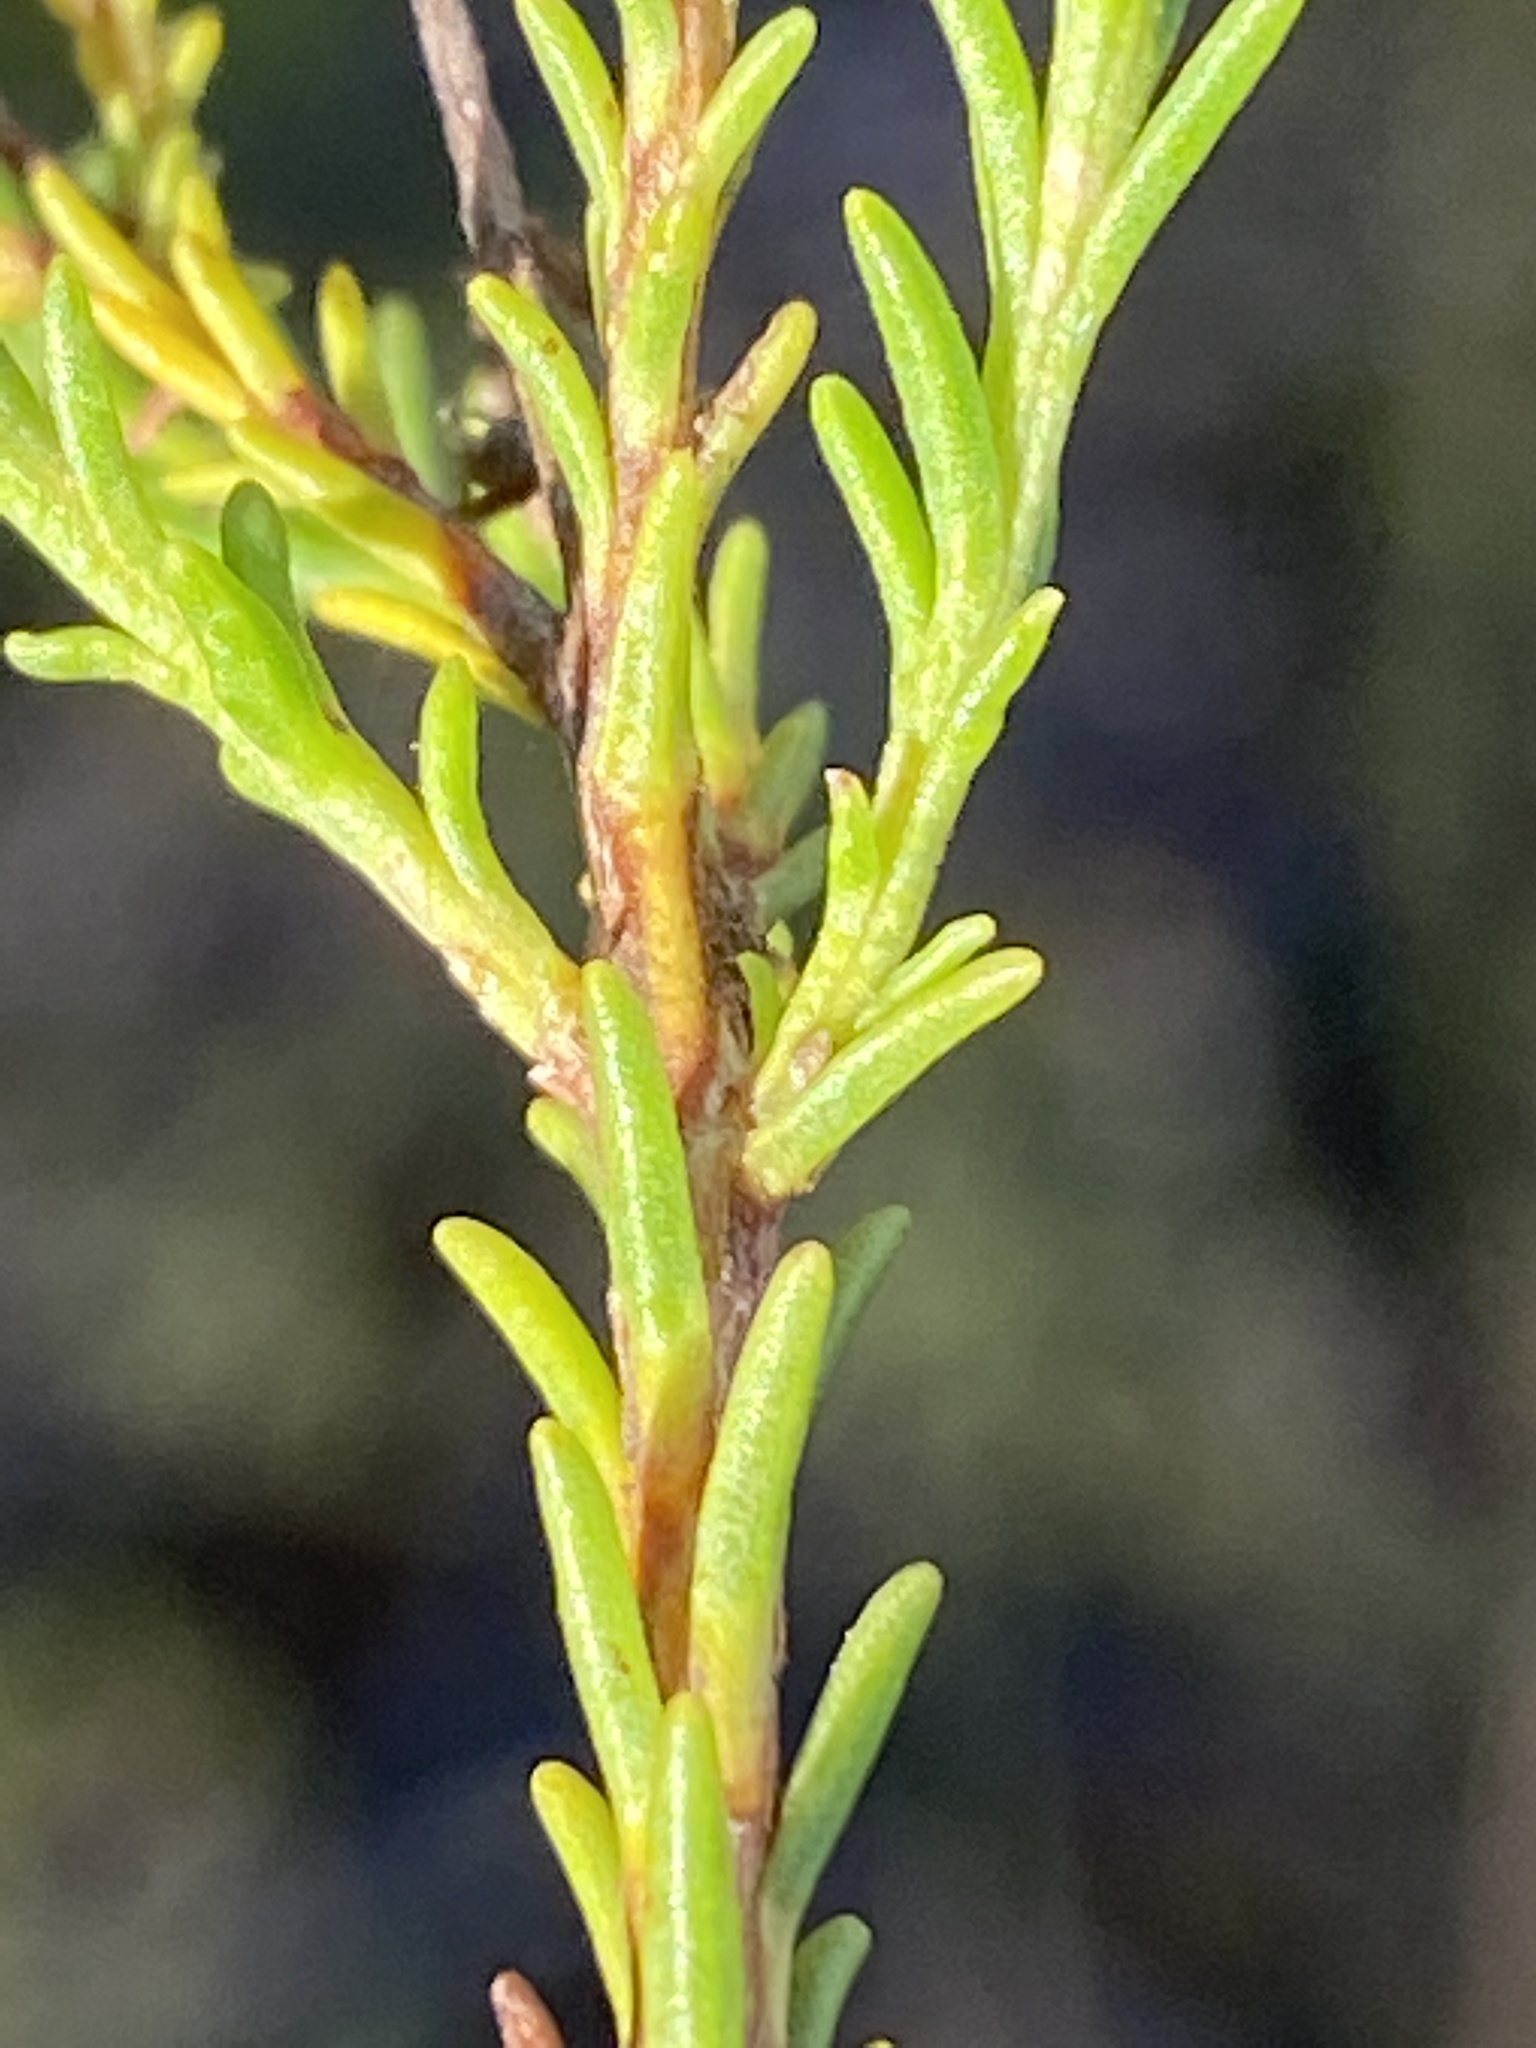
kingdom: Plantae
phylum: Tracheophyta
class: Magnoliopsida
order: Lamiales
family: Scrophulariaceae
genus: Selago
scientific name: Selago thomii
